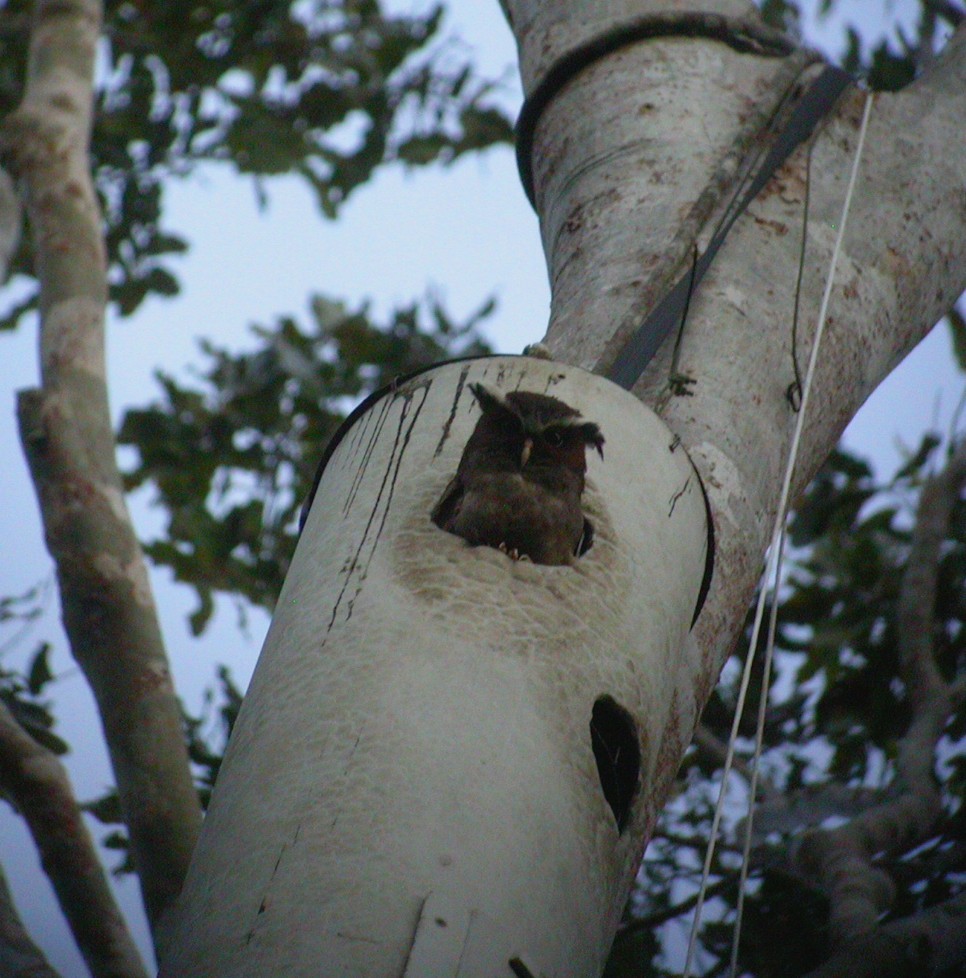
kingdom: Animalia
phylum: Chordata
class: Aves
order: Strigiformes
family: Strigidae
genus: Lophostrix
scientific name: Lophostrix cristata
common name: Crested owl
